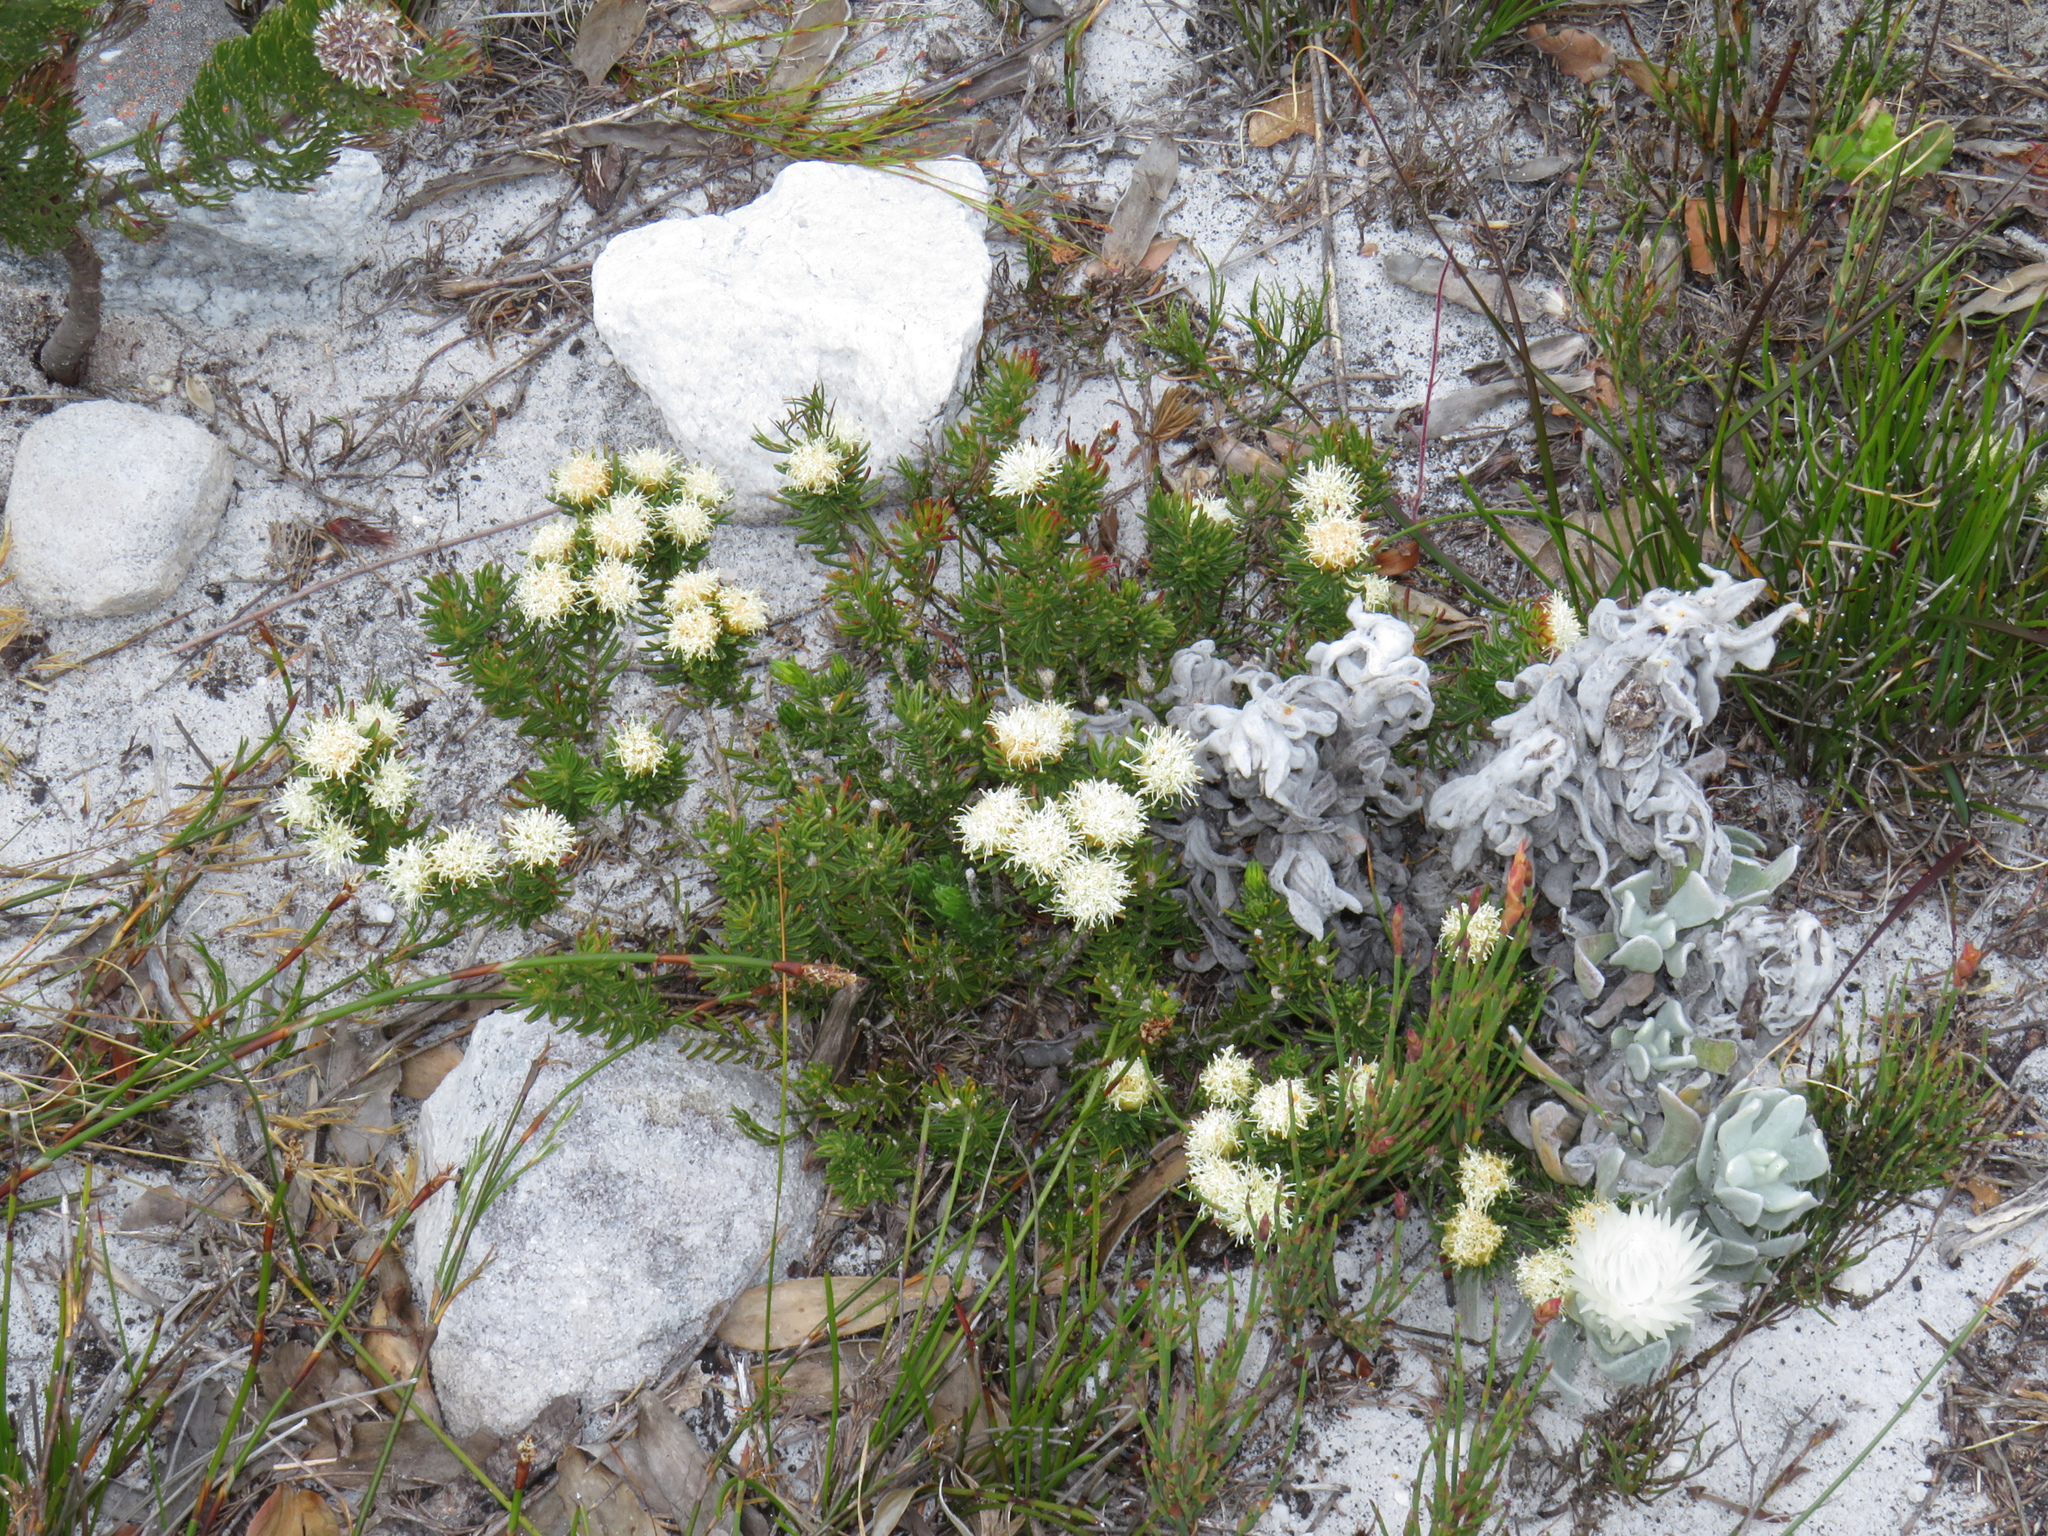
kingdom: Plantae
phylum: Tracheophyta
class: Magnoliopsida
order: Sapindales
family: Rutaceae
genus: Agathosma
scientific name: Agathosma hookeri
